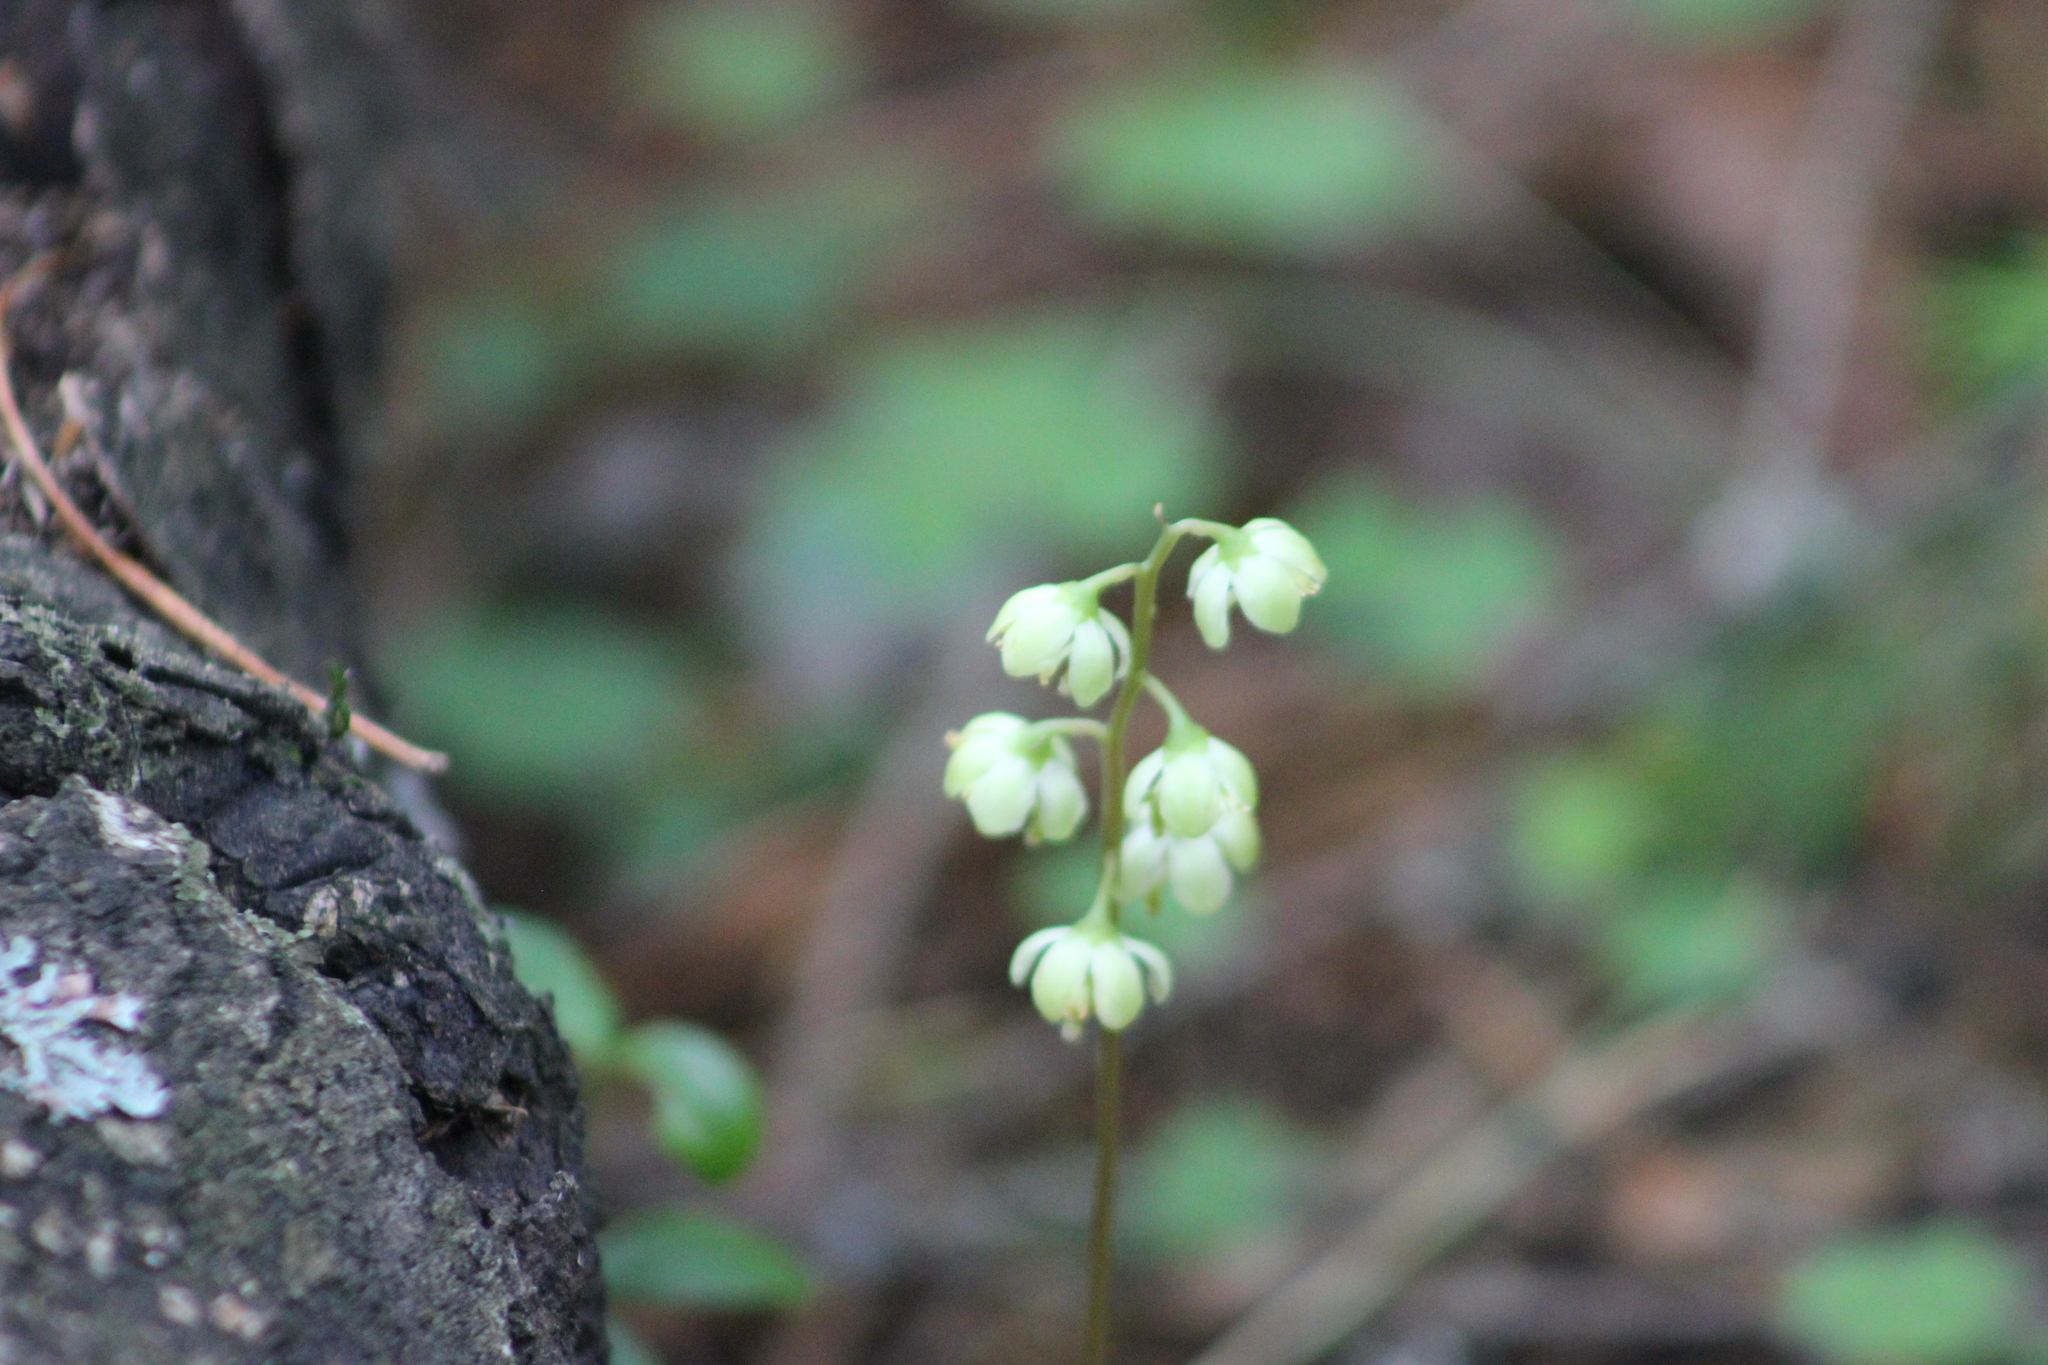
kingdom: Plantae
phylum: Tracheophyta
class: Magnoliopsida
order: Ericales
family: Ericaceae
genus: Pyrola
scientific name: Pyrola chlorantha
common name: Green wintergreen
